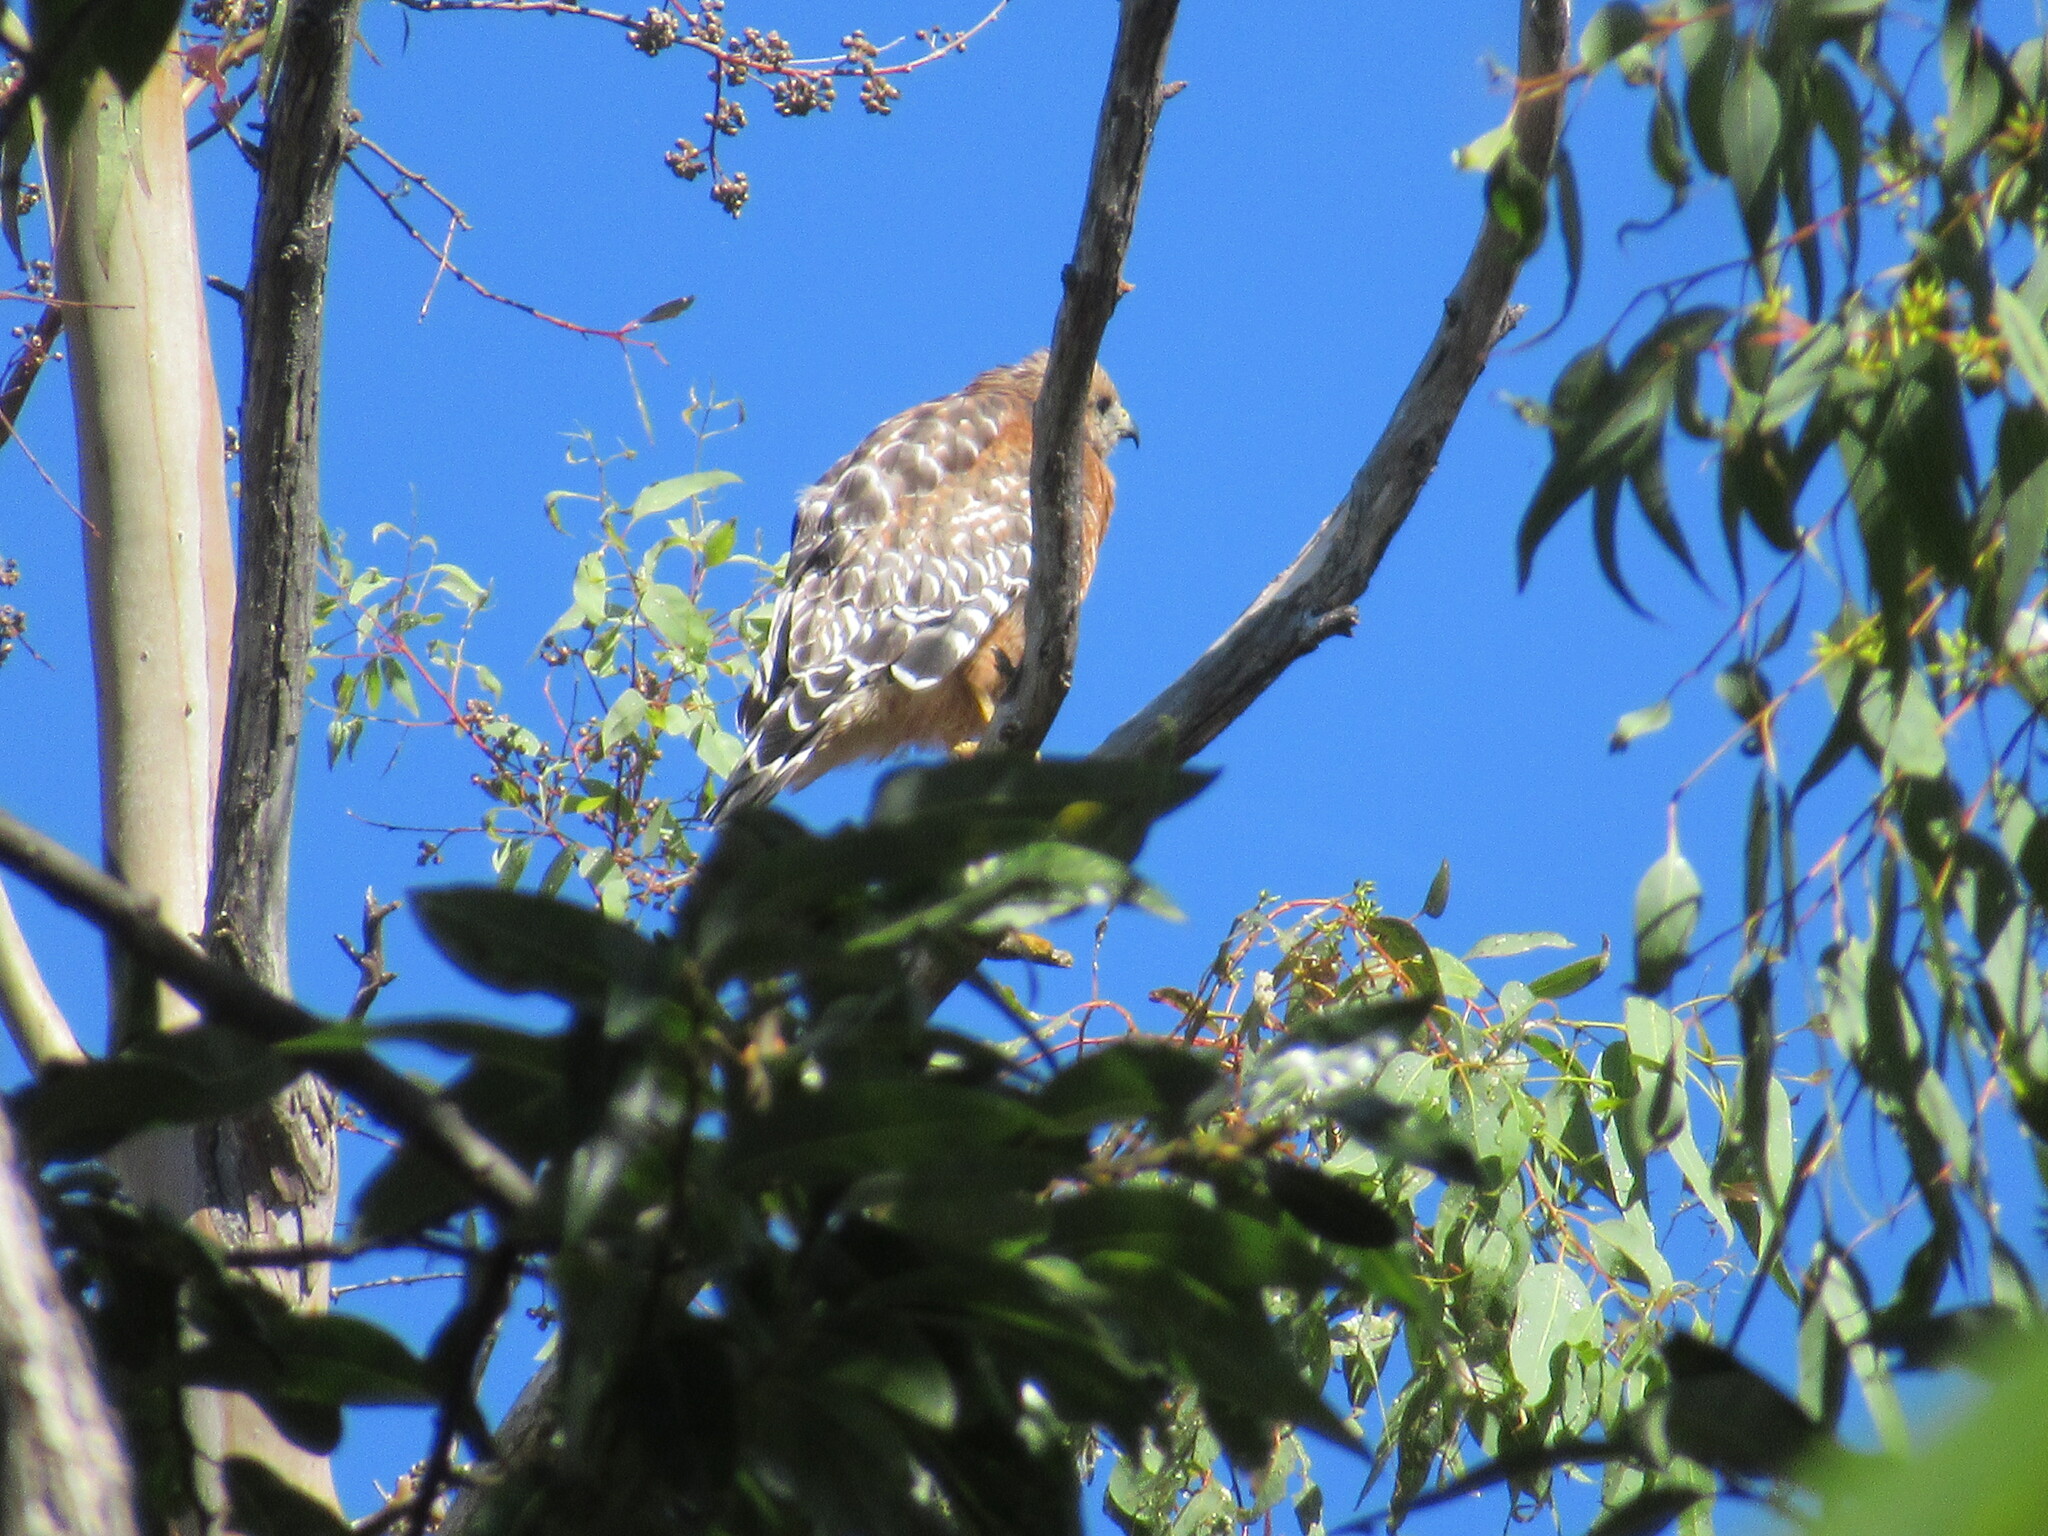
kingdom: Animalia
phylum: Chordata
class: Aves
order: Accipitriformes
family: Accipitridae
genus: Buteo
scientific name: Buteo lineatus
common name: Red-shouldered hawk
